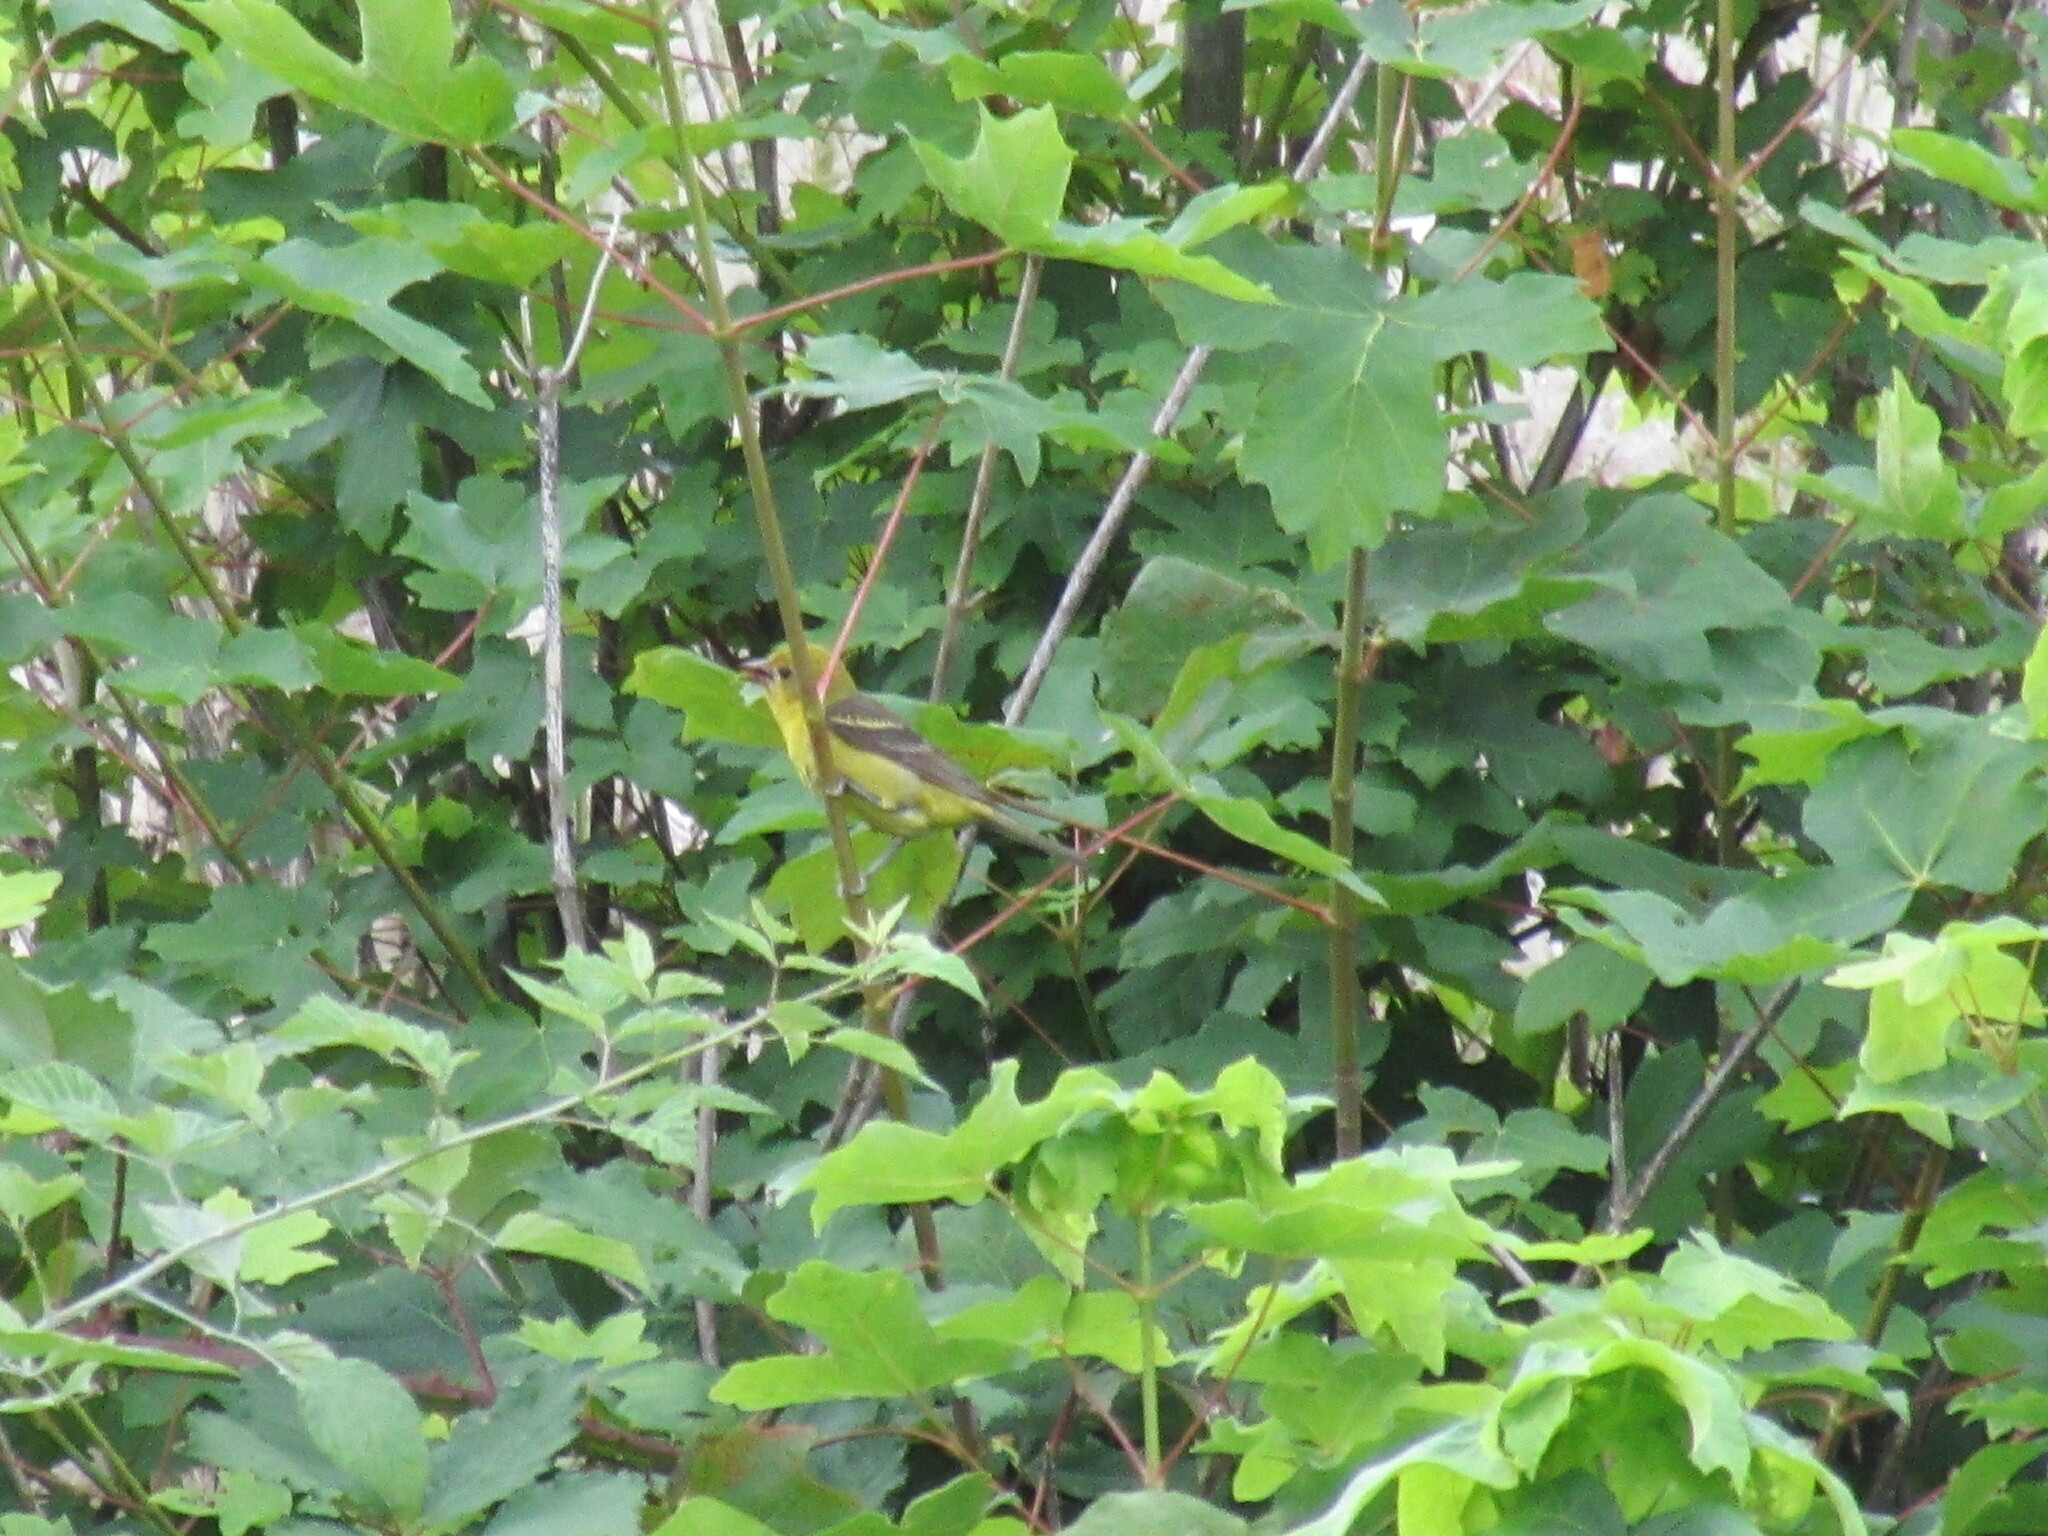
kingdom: Animalia
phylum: Chordata
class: Aves
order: Passeriformes
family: Cardinalidae
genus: Piranga
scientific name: Piranga ludoviciana
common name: Western tanager
